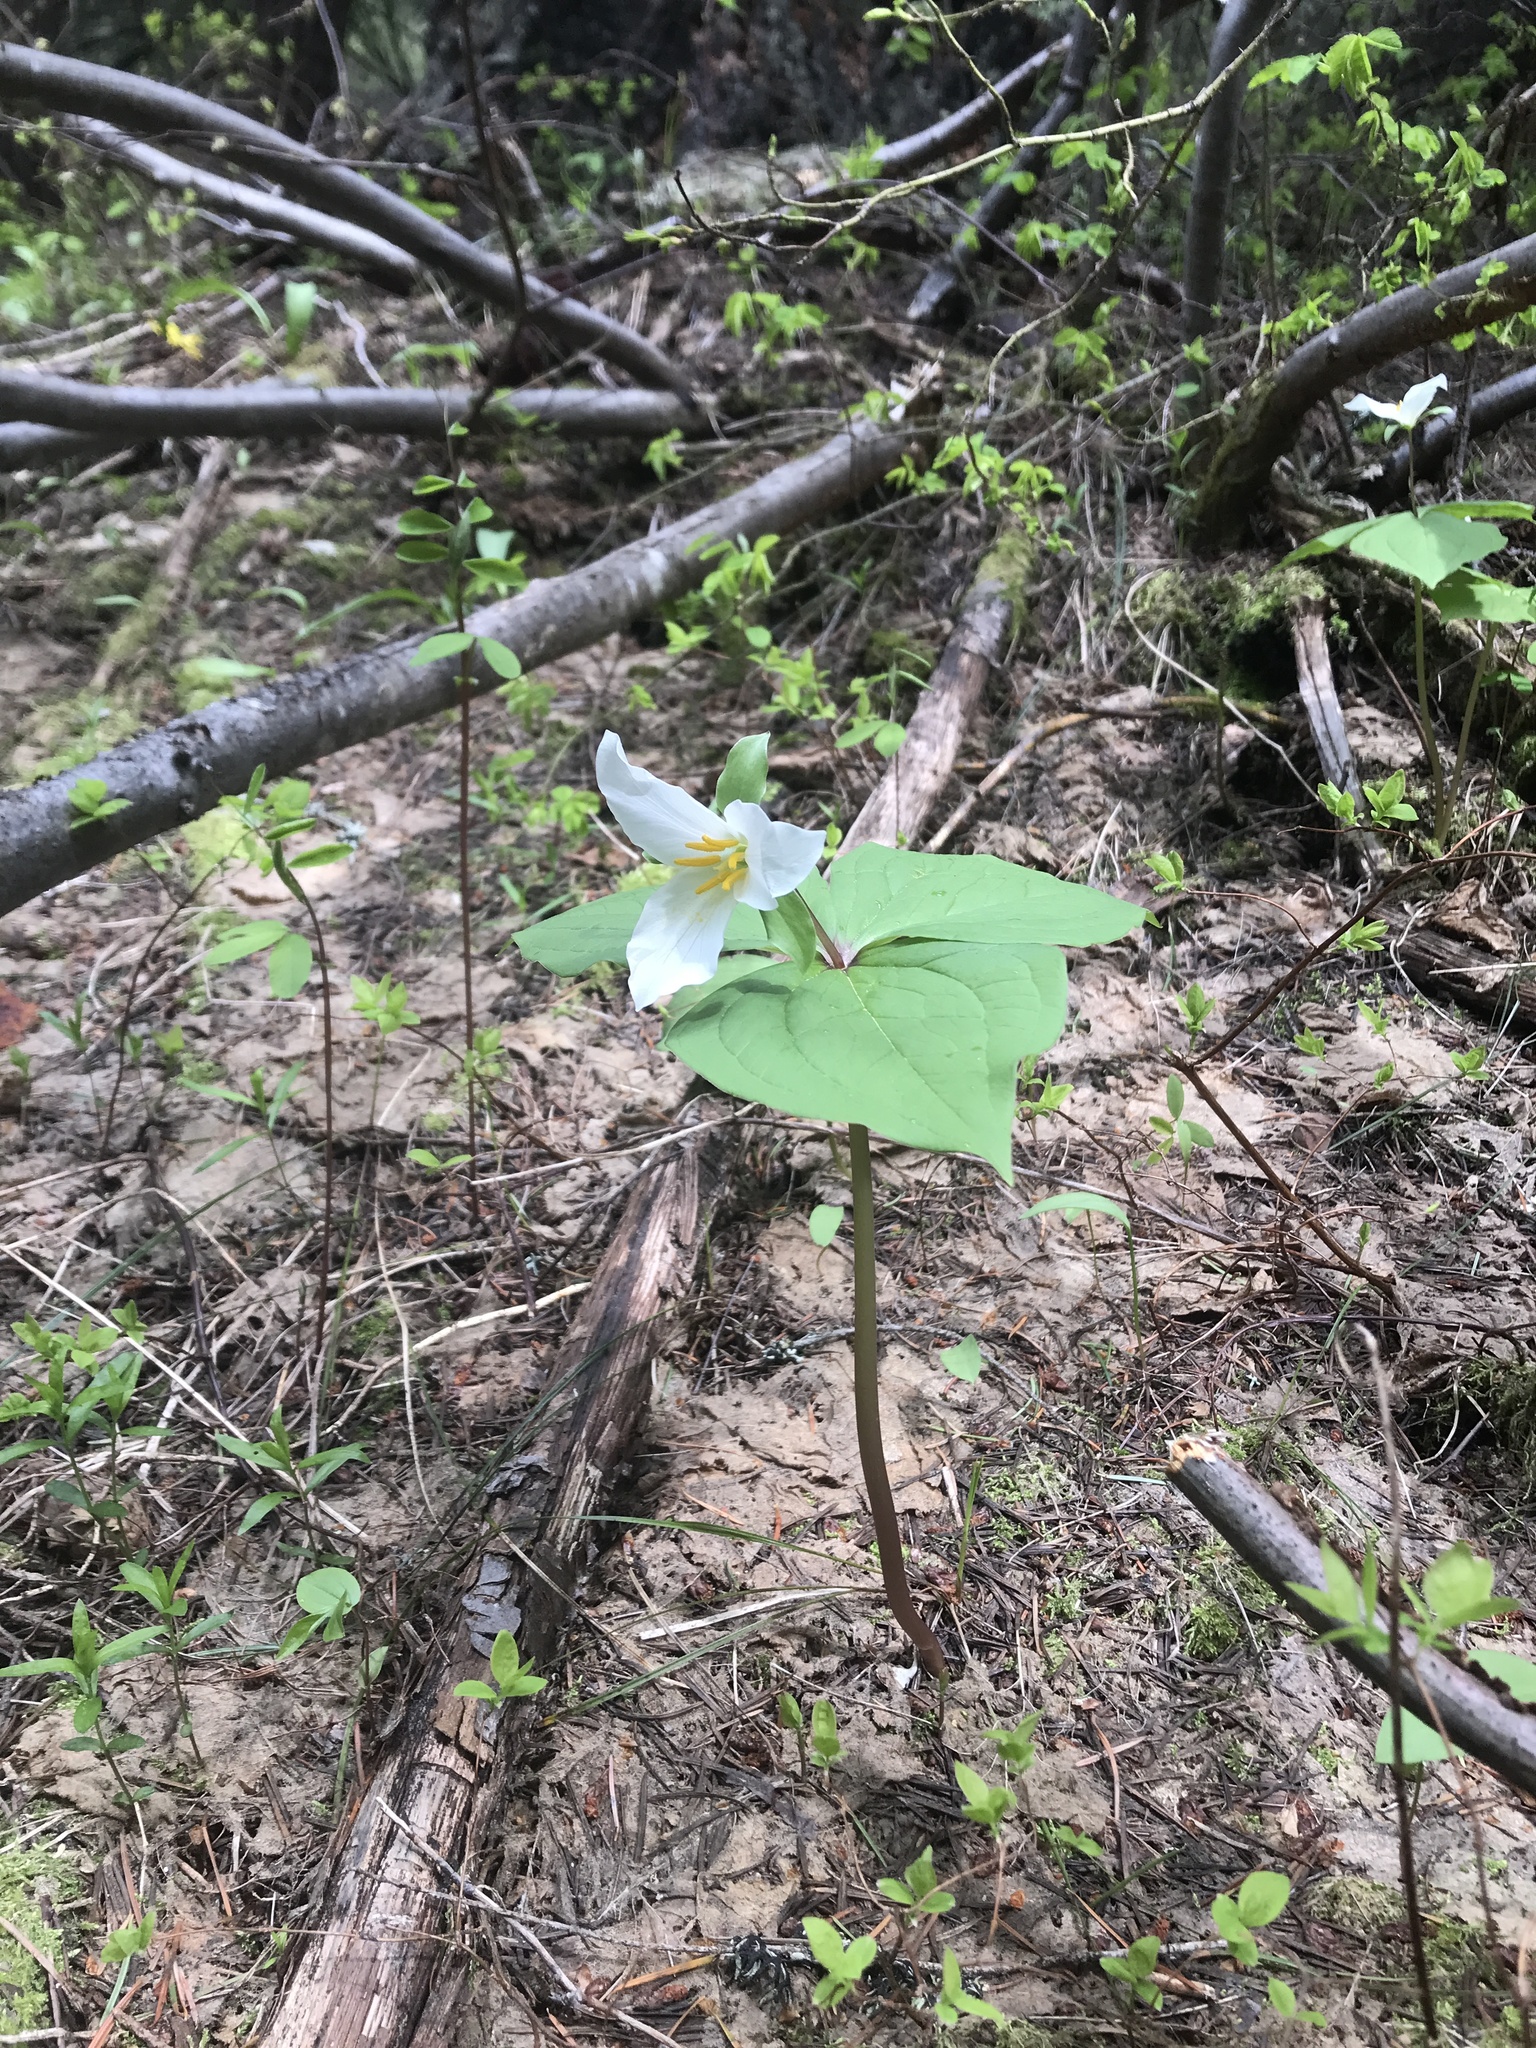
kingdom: Plantae
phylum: Tracheophyta
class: Liliopsida
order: Liliales
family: Melanthiaceae
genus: Trillium
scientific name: Trillium ovatum
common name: Pacific trillium
